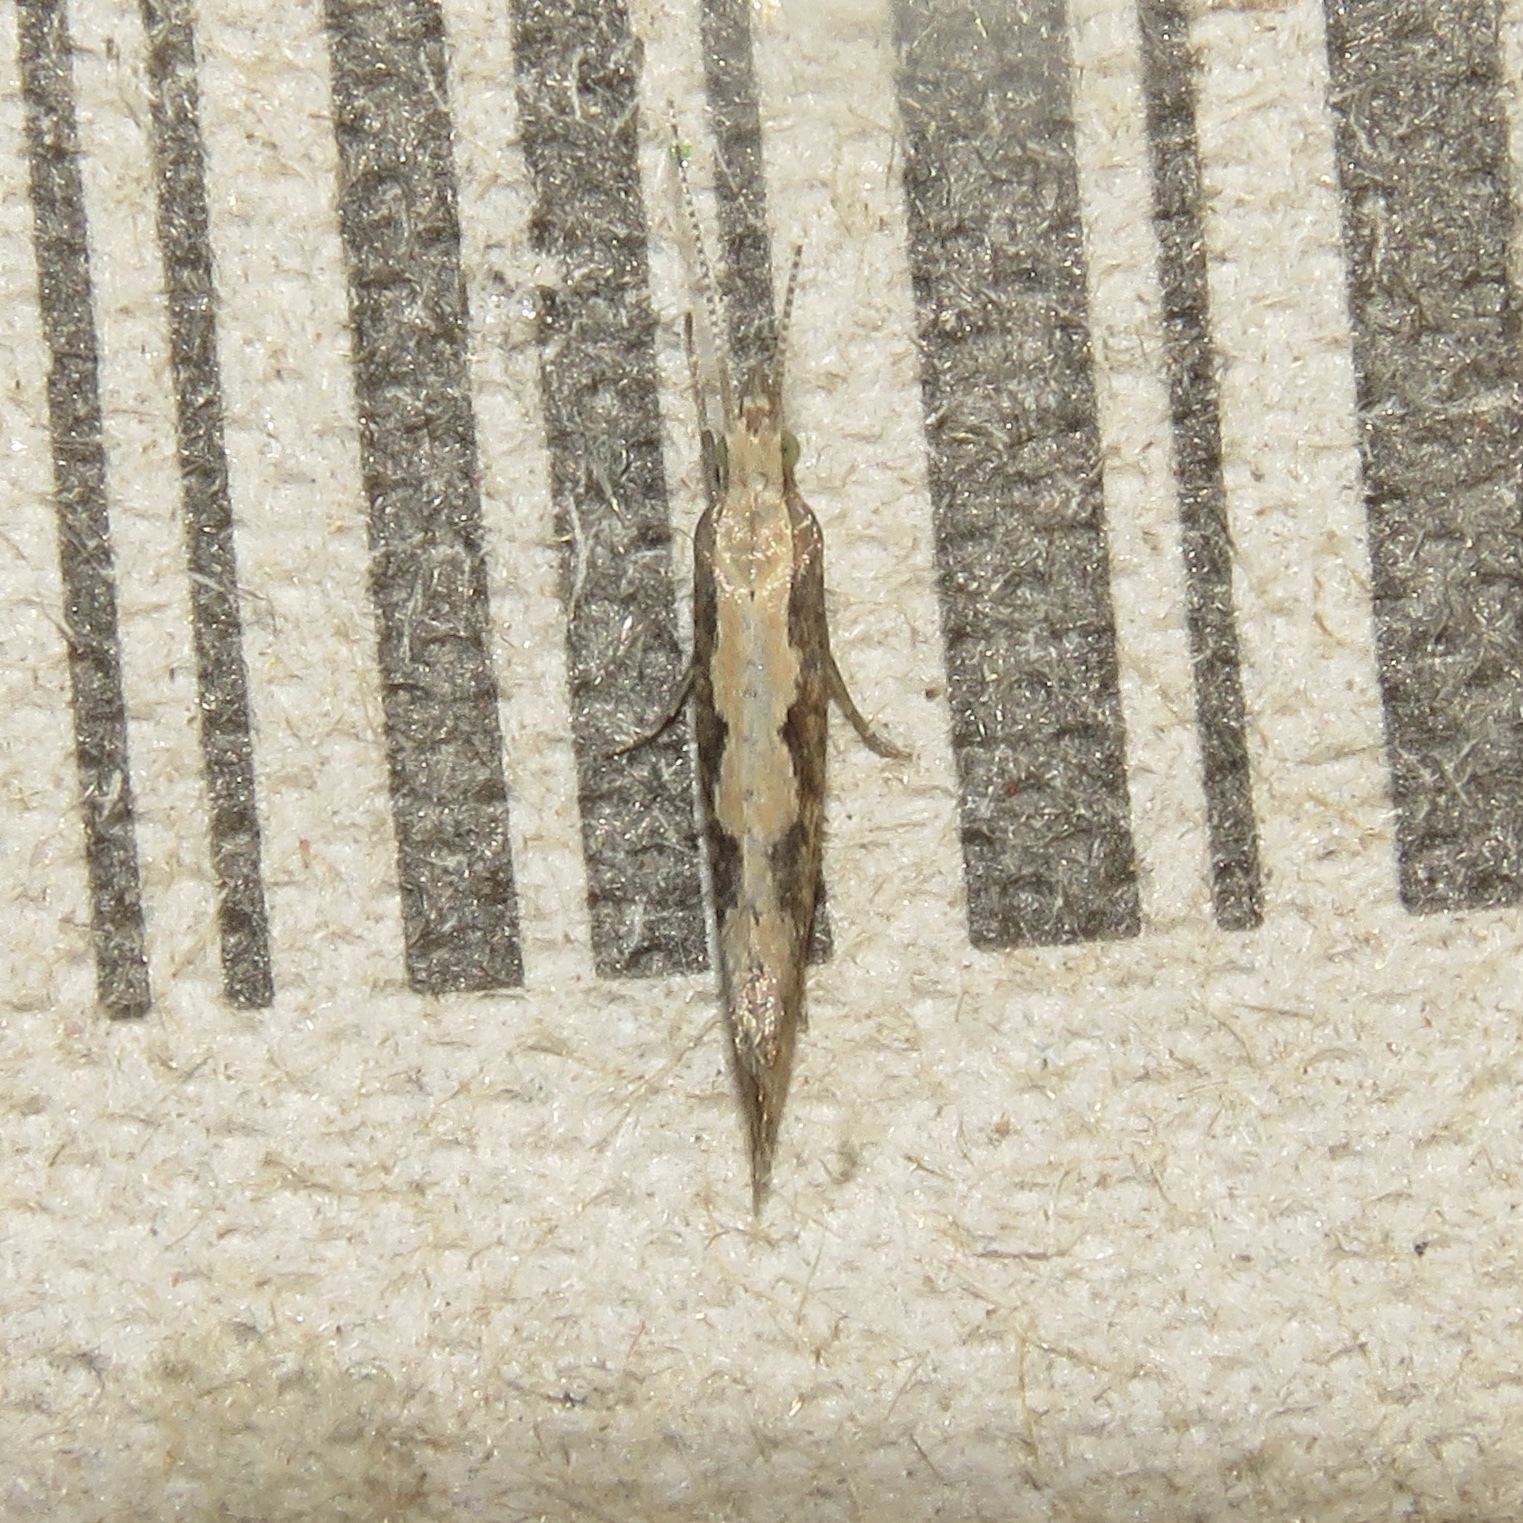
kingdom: Animalia
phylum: Arthropoda
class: Insecta
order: Lepidoptera
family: Plutellidae
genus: Plutella
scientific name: Plutella xylostella
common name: Diamond-back moth
